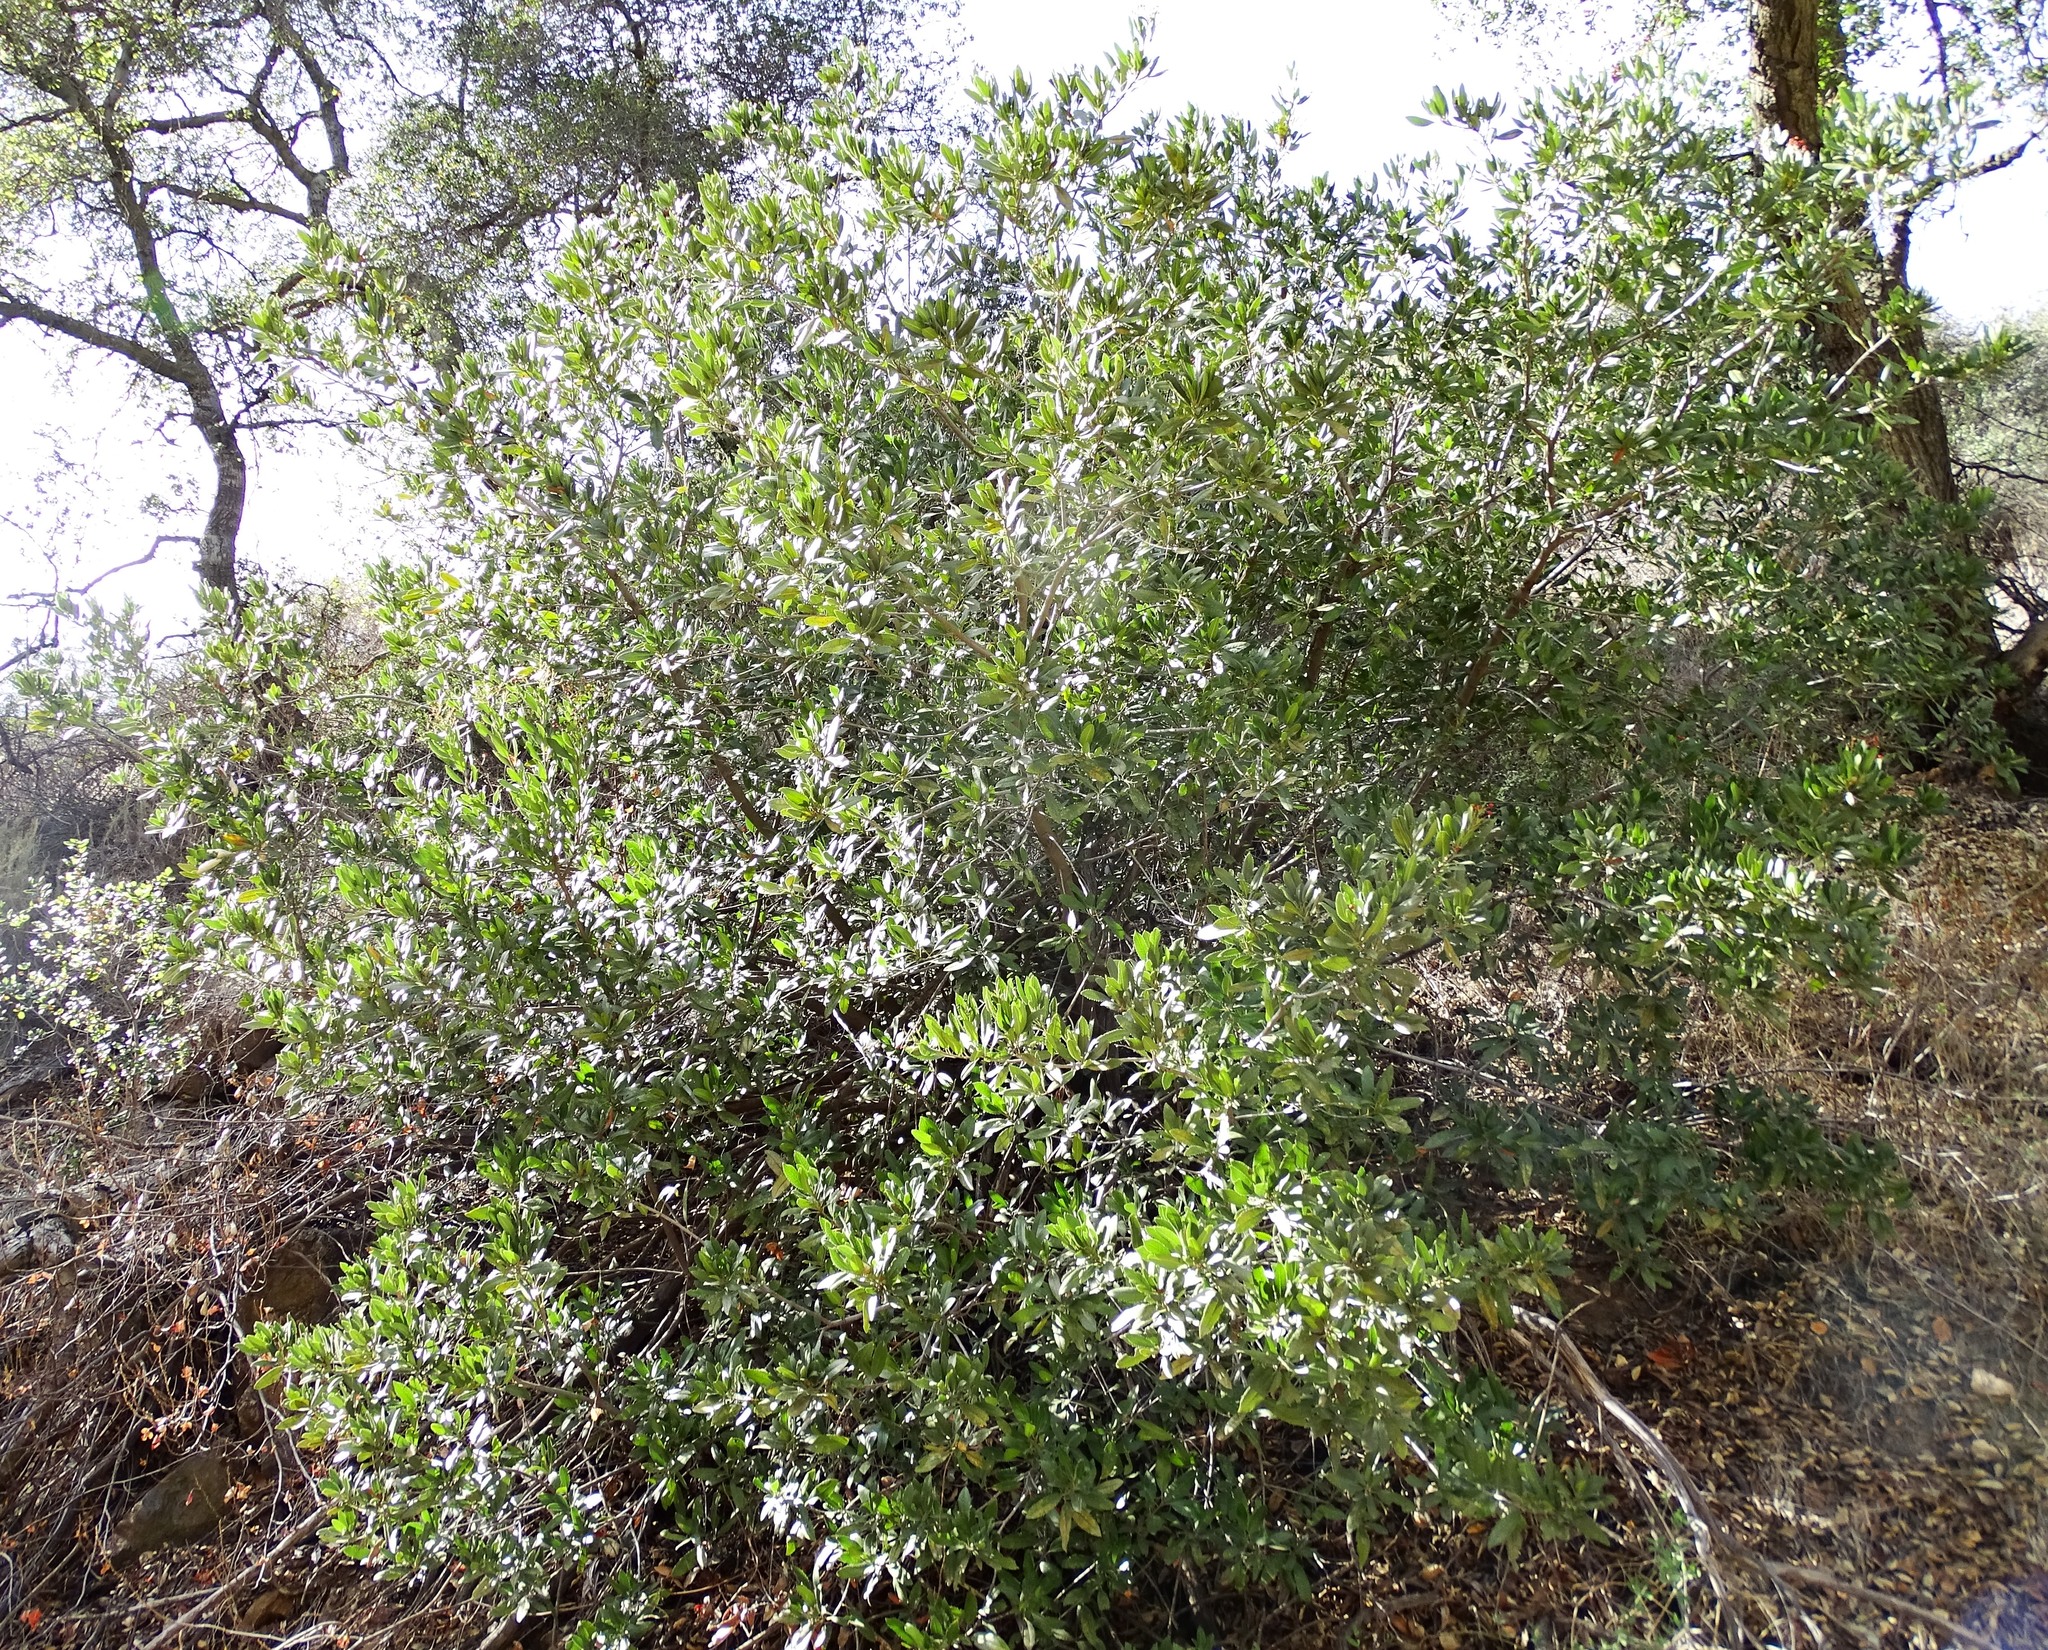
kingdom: Plantae
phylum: Tracheophyta
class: Magnoliopsida
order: Rosales
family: Rosaceae
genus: Heteromeles
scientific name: Heteromeles arbutifolia
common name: California-holly
